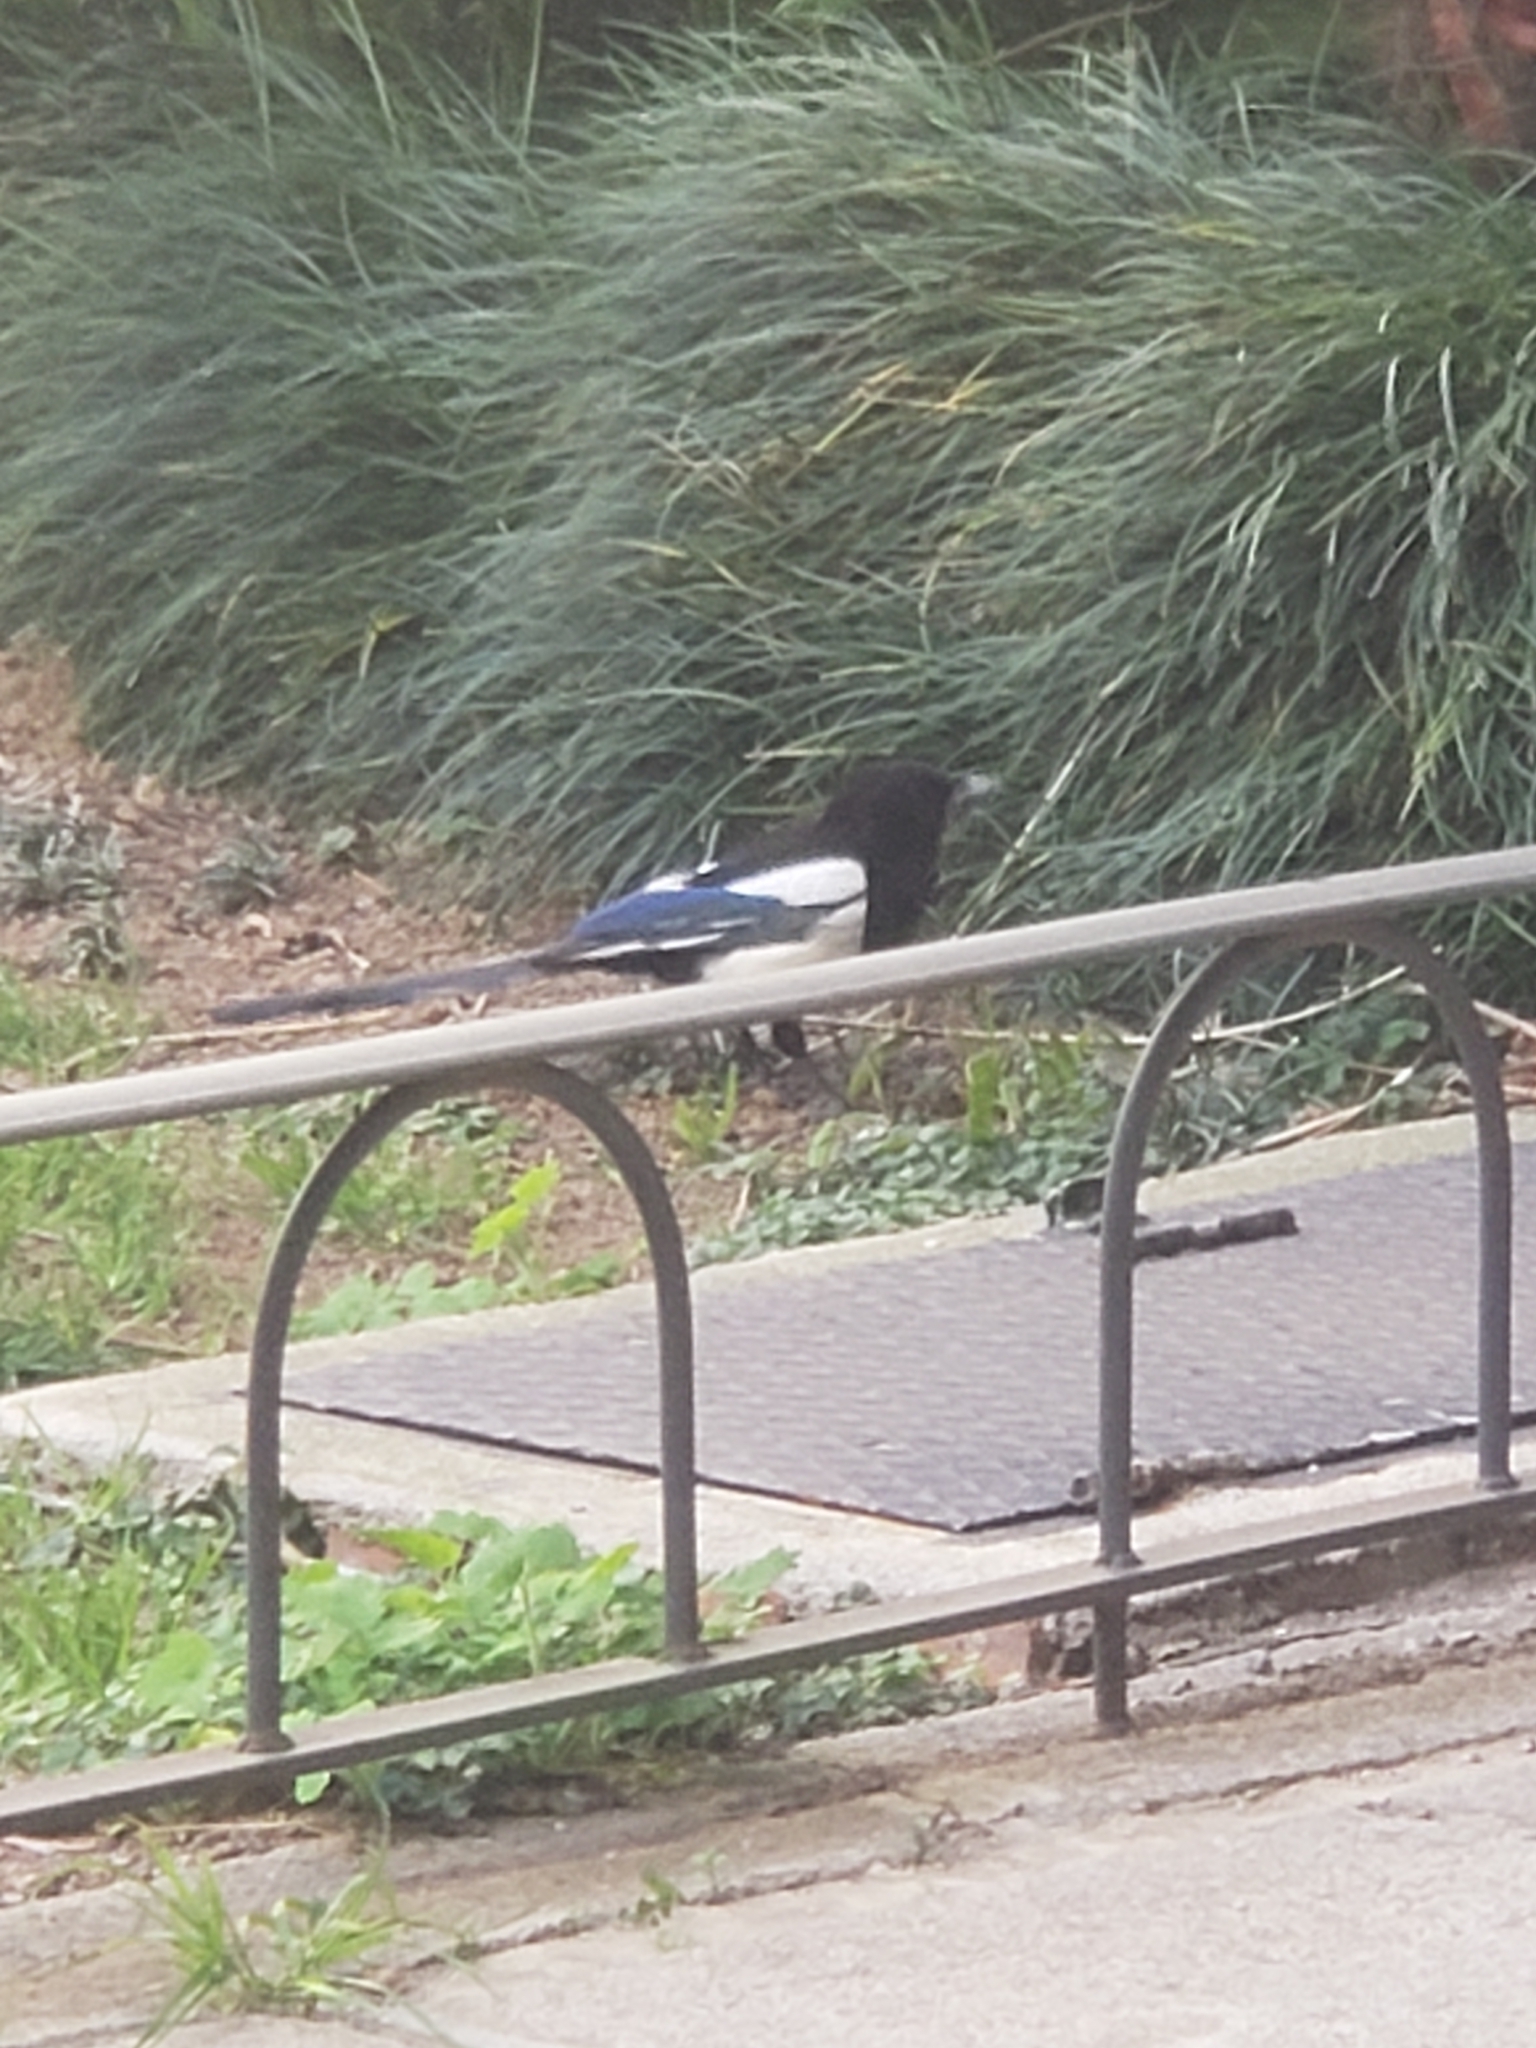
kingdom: Animalia
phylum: Chordata
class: Aves
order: Passeriformes
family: Corvidae
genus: Pica
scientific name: Pica pica
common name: Eurasian magpie
